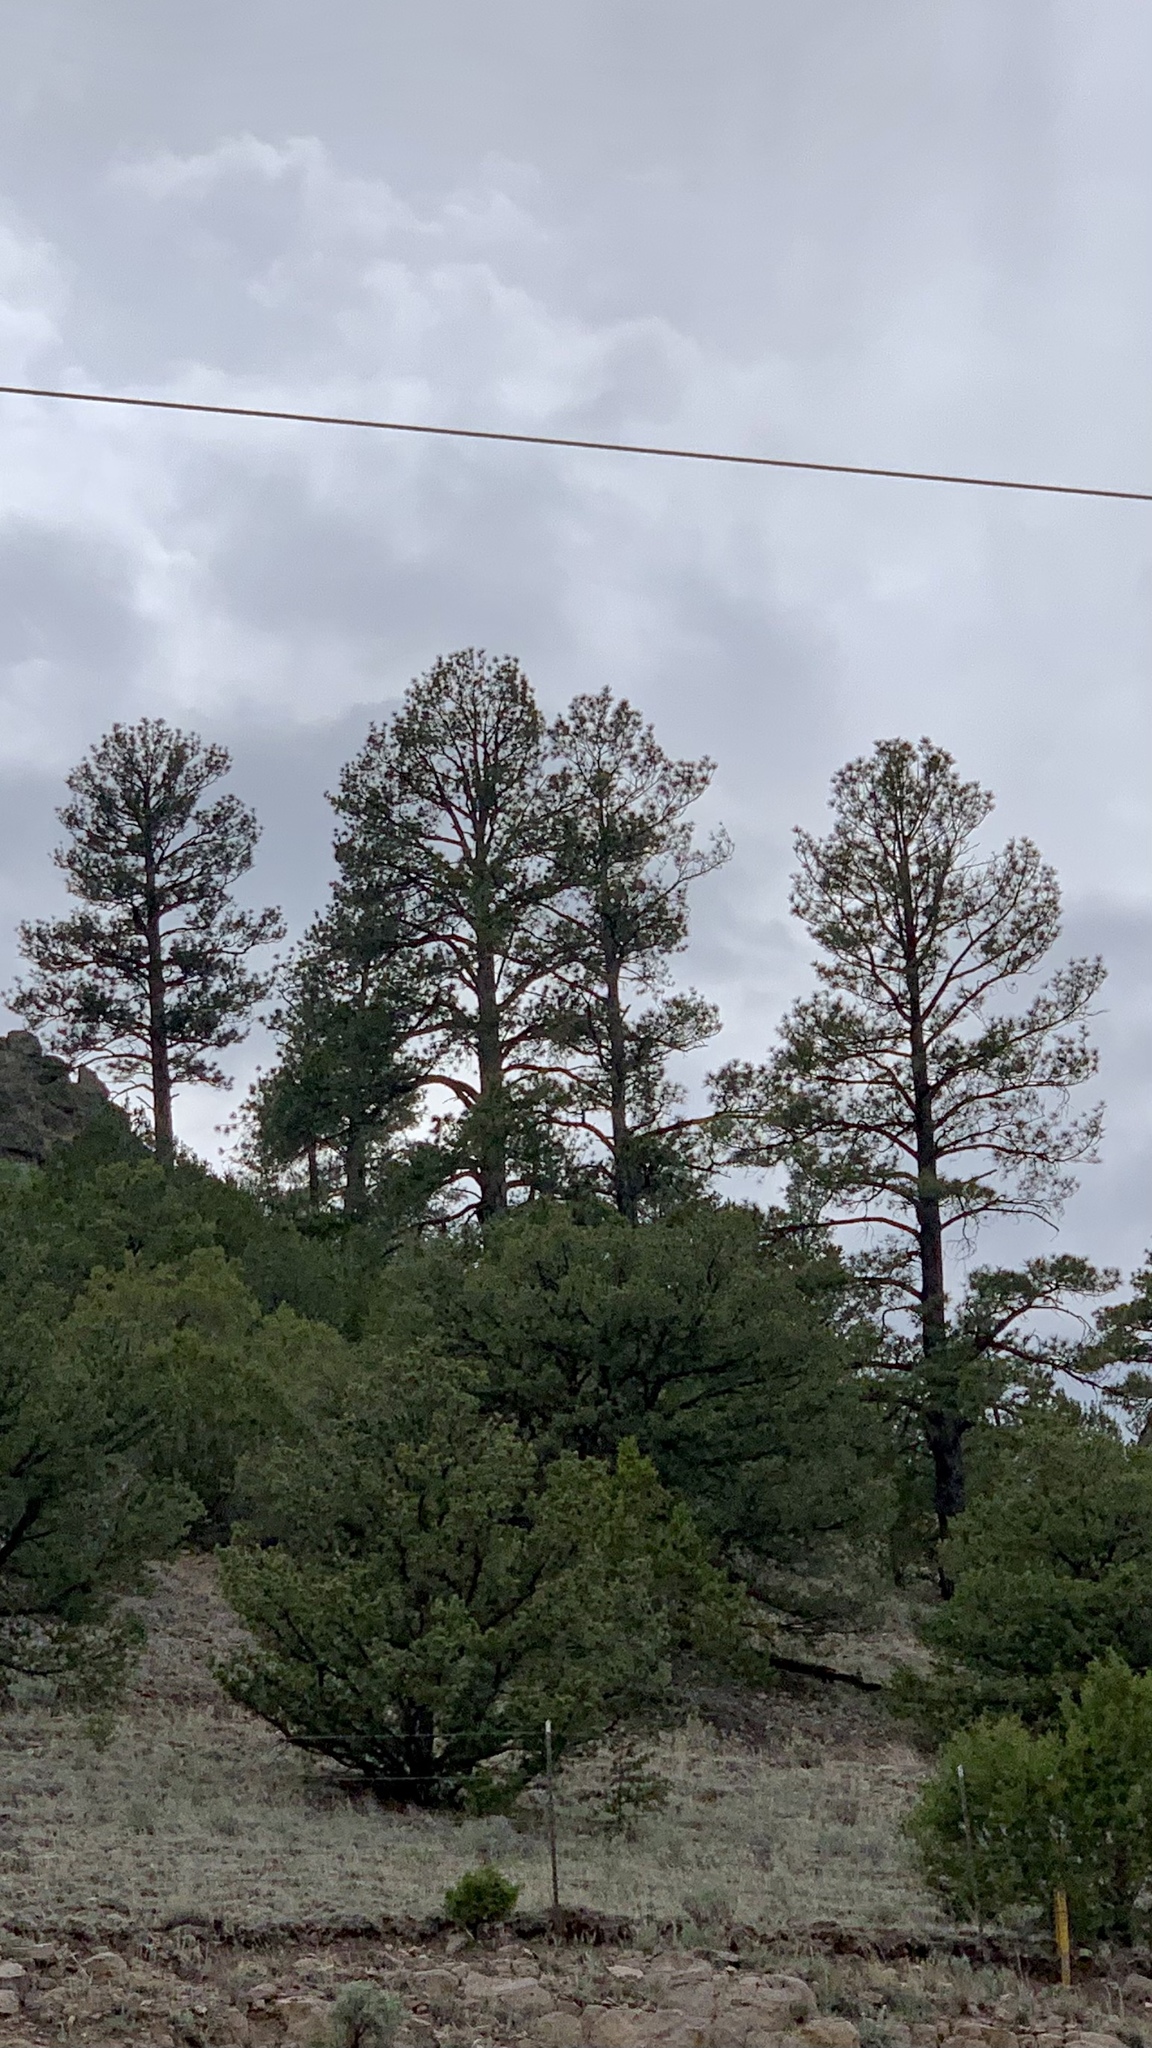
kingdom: Plantae
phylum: Tracheophyta
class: Pinopsida
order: Pinales
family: Pinaceae
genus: Pinus
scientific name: Pinus ponderosa
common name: Western yellow-pine
